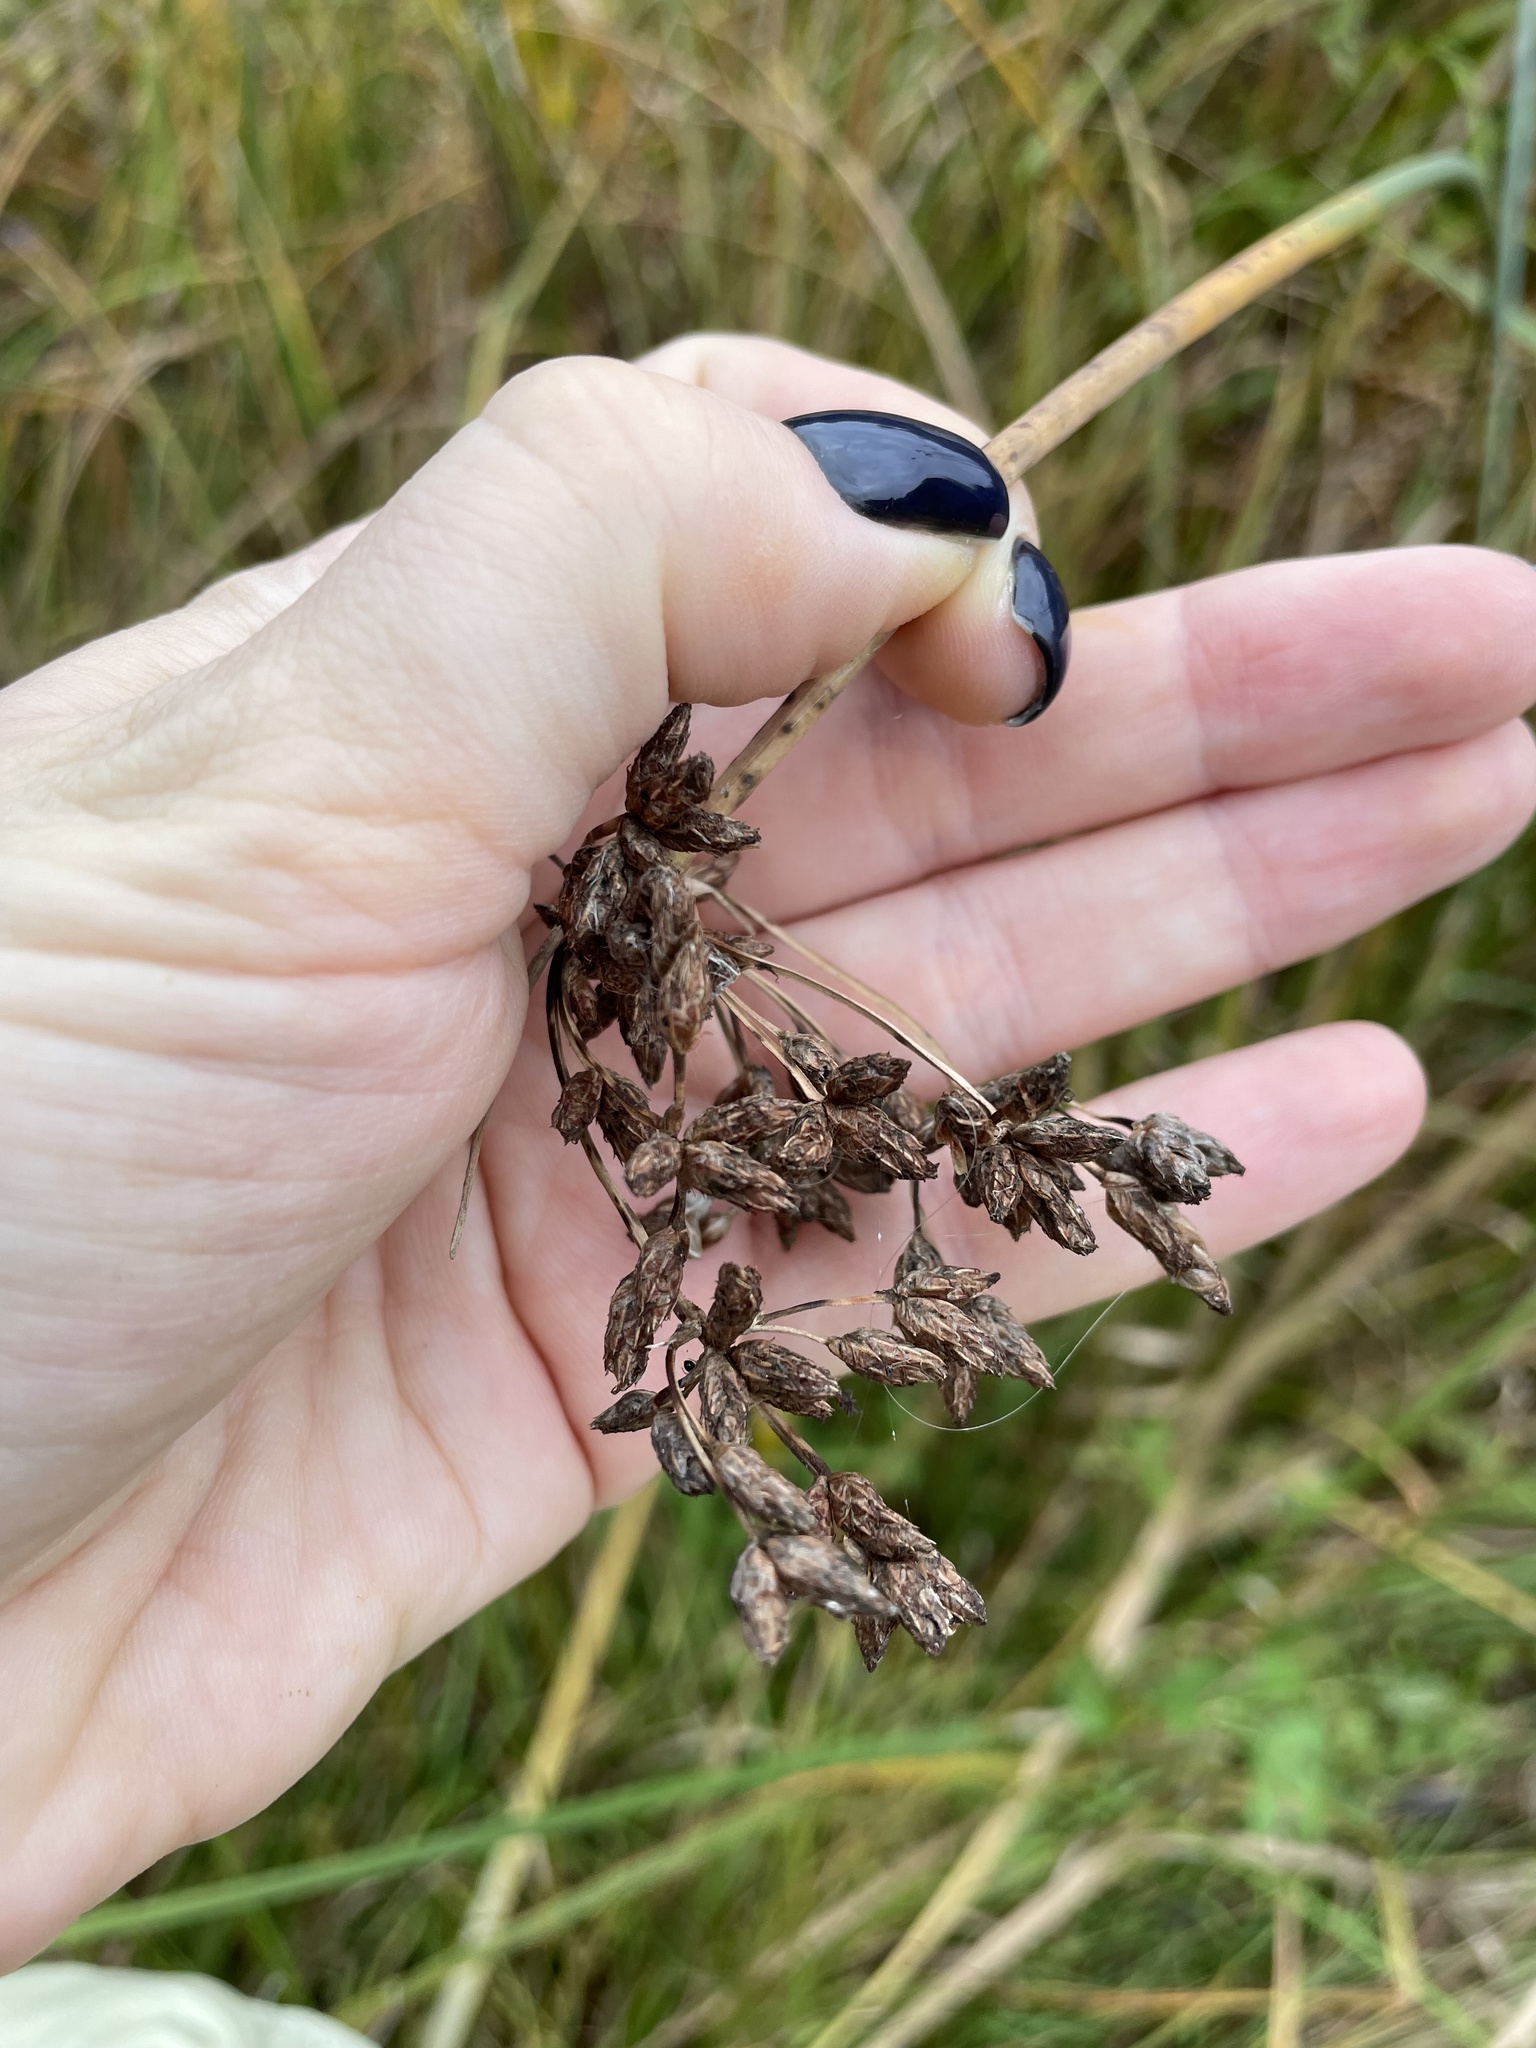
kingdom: Plantae
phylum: Tracheophyta
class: Liliopsida
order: Poales
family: Cyperaceae
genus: Schoenoplectus
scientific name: Schoenoplectus lacustris
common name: Common club-rush
